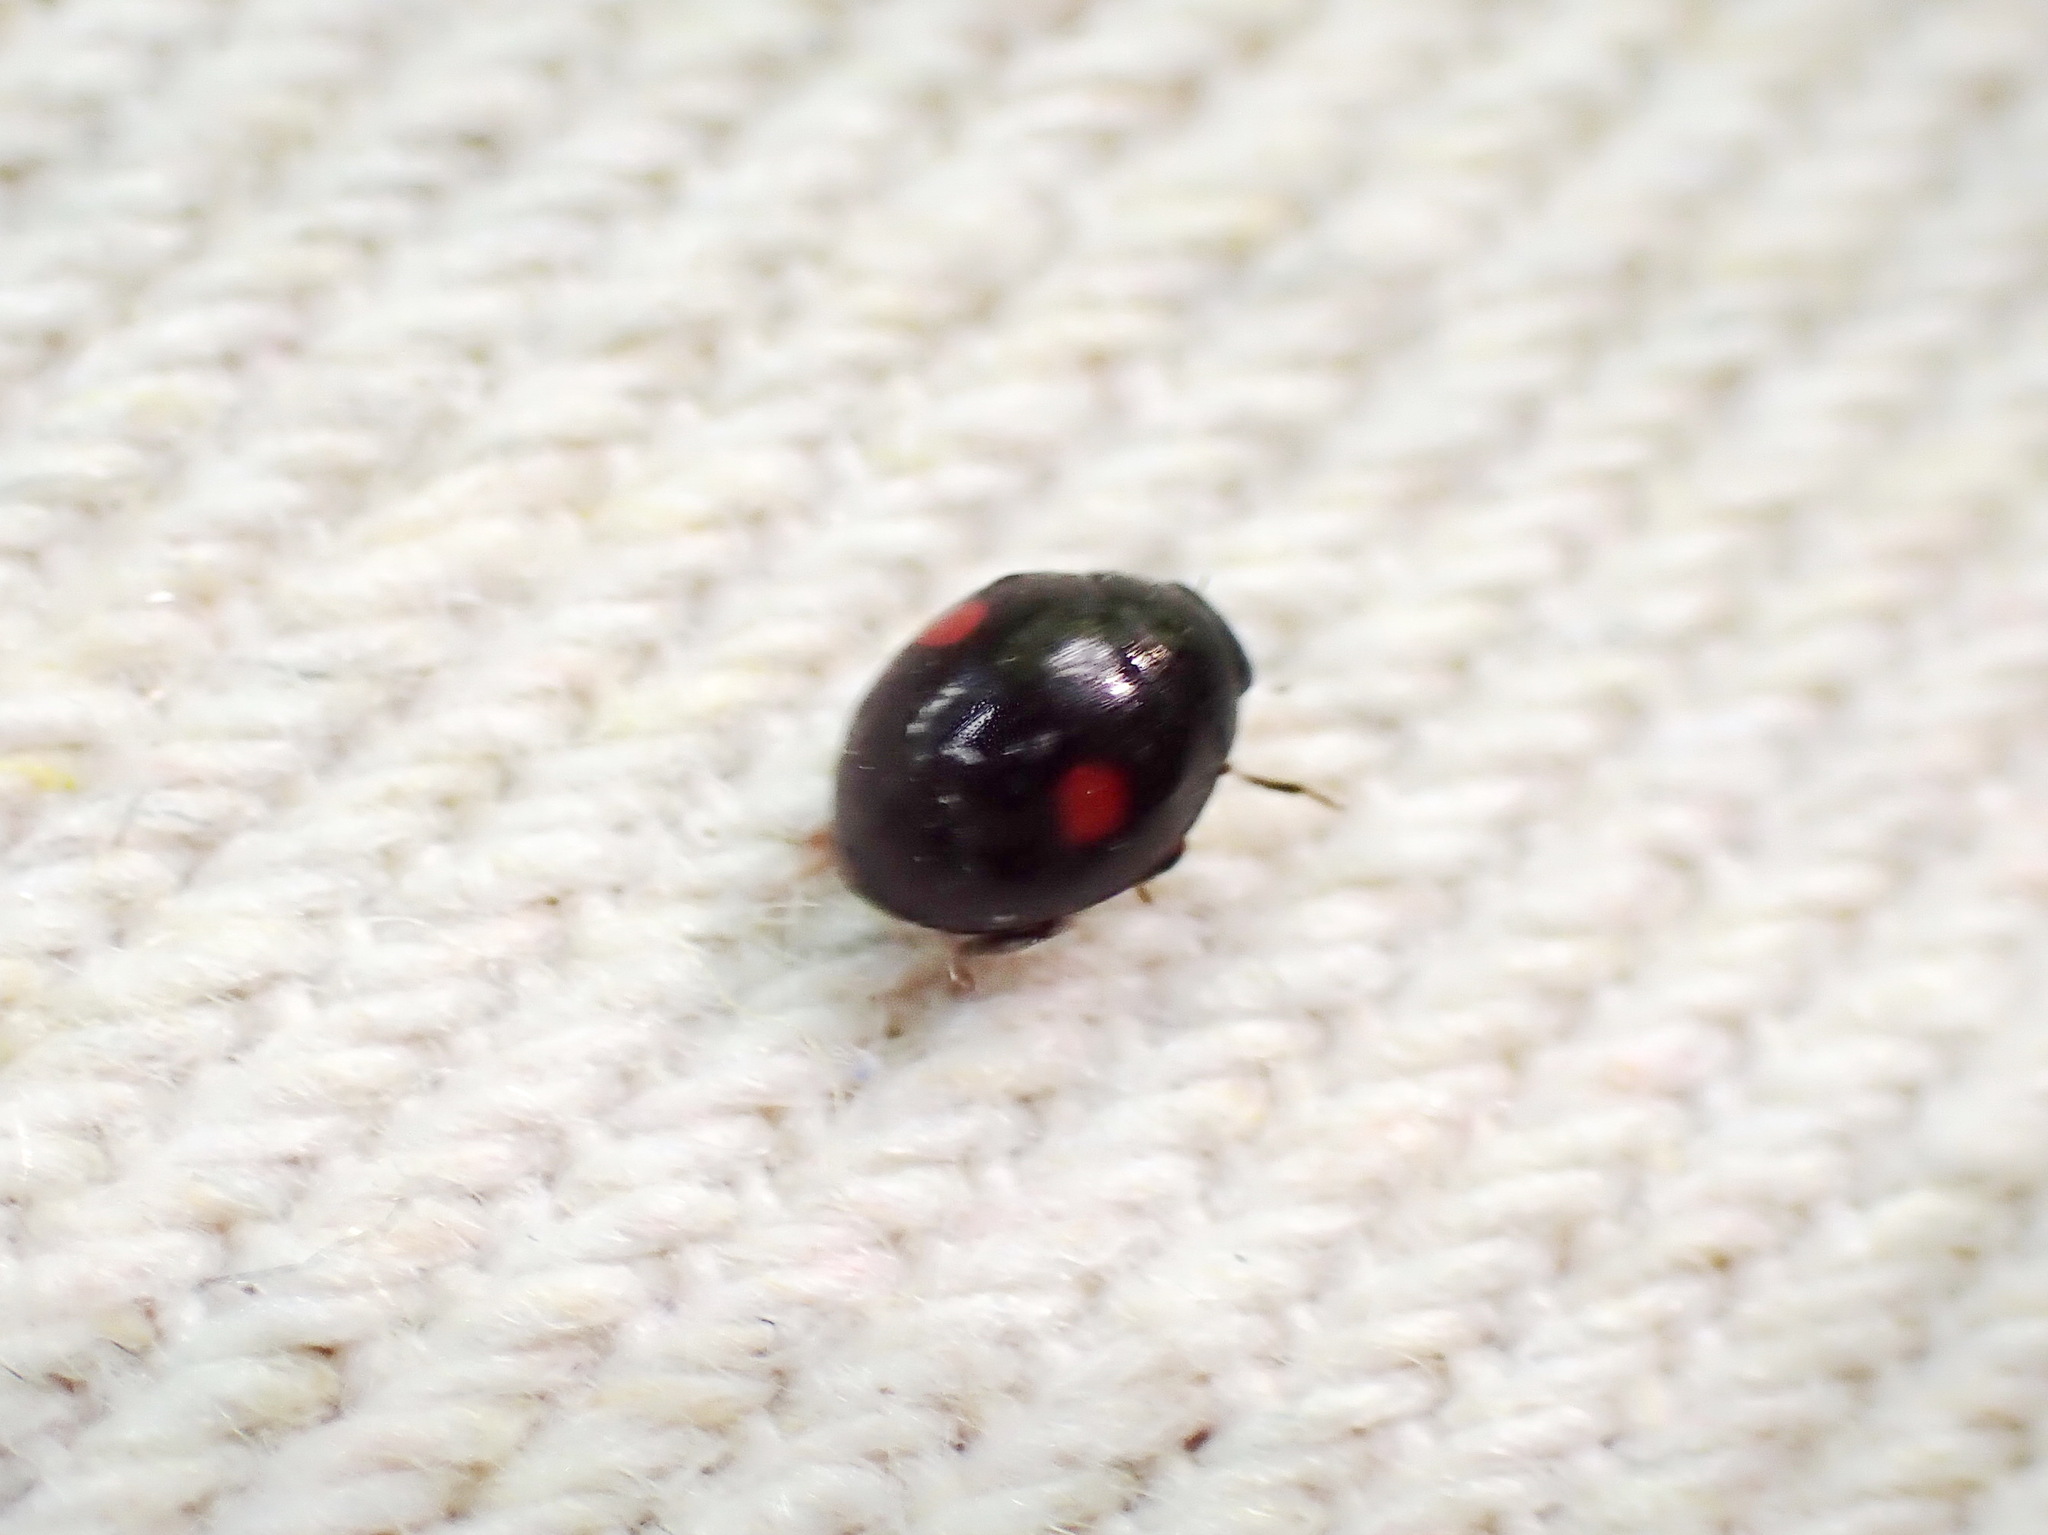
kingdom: Animalia
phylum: Arthropoda
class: Insecta
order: Coleoptera
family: Coccinellidae
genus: Chilocorus
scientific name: Chilocorus stigma
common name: Twicestabbed lady beetle
